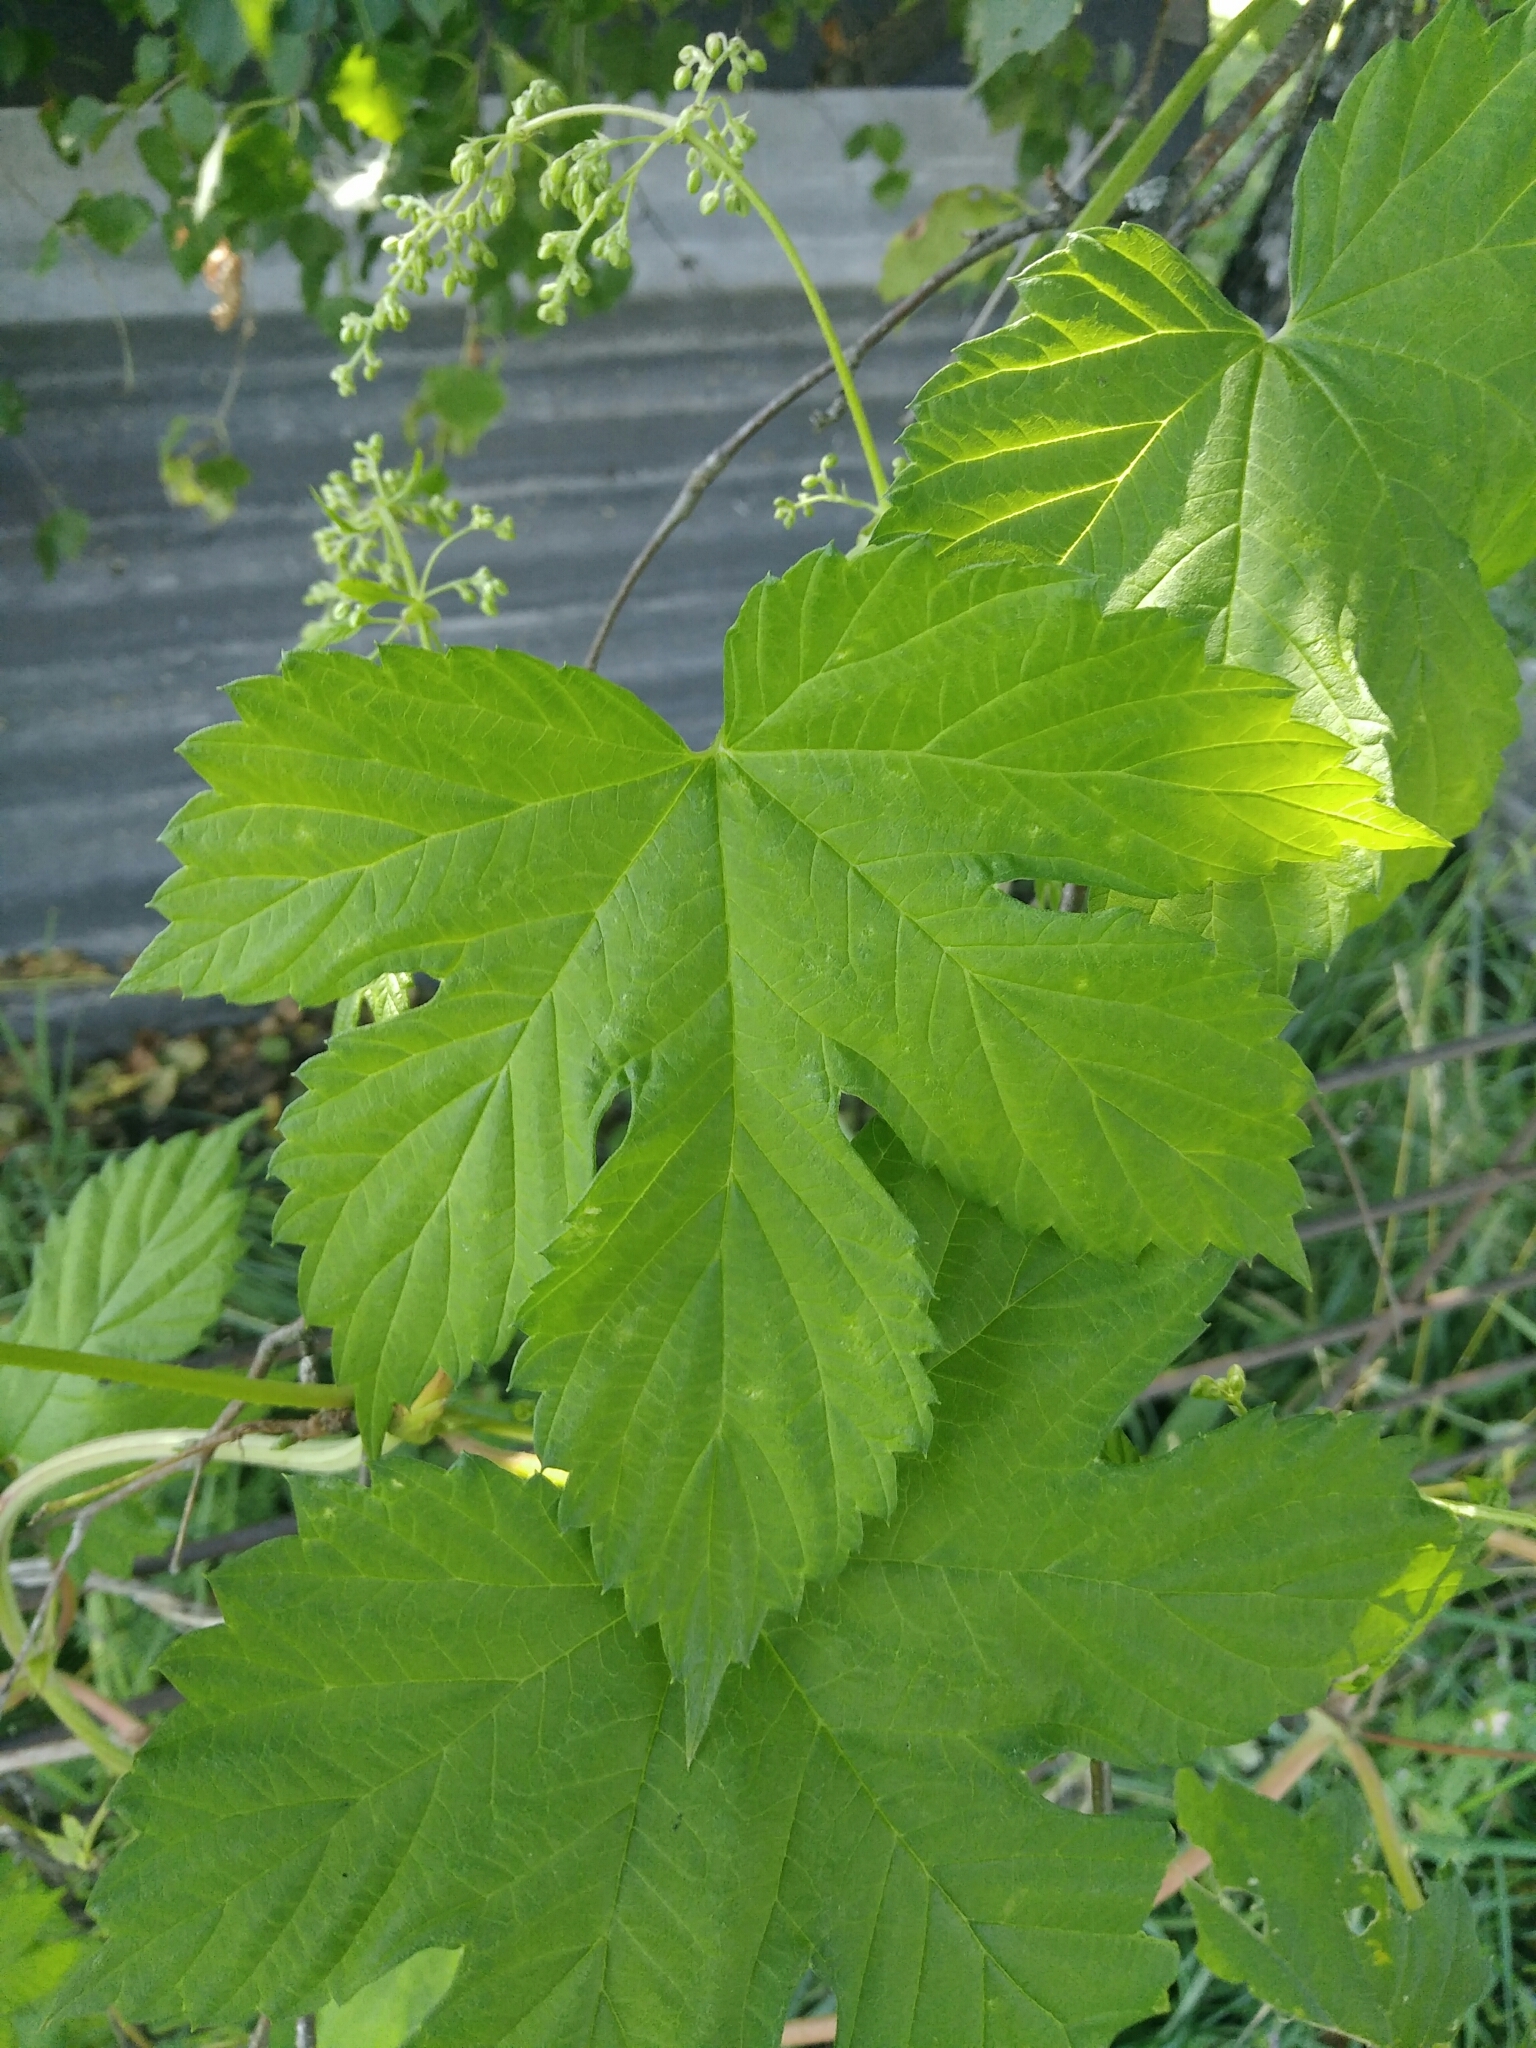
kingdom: Plantae
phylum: Tracheophyta
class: Magnoliopsida
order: Rosales
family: Cannabaceae
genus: Humulus
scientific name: Humulus lupulus
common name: Hop
